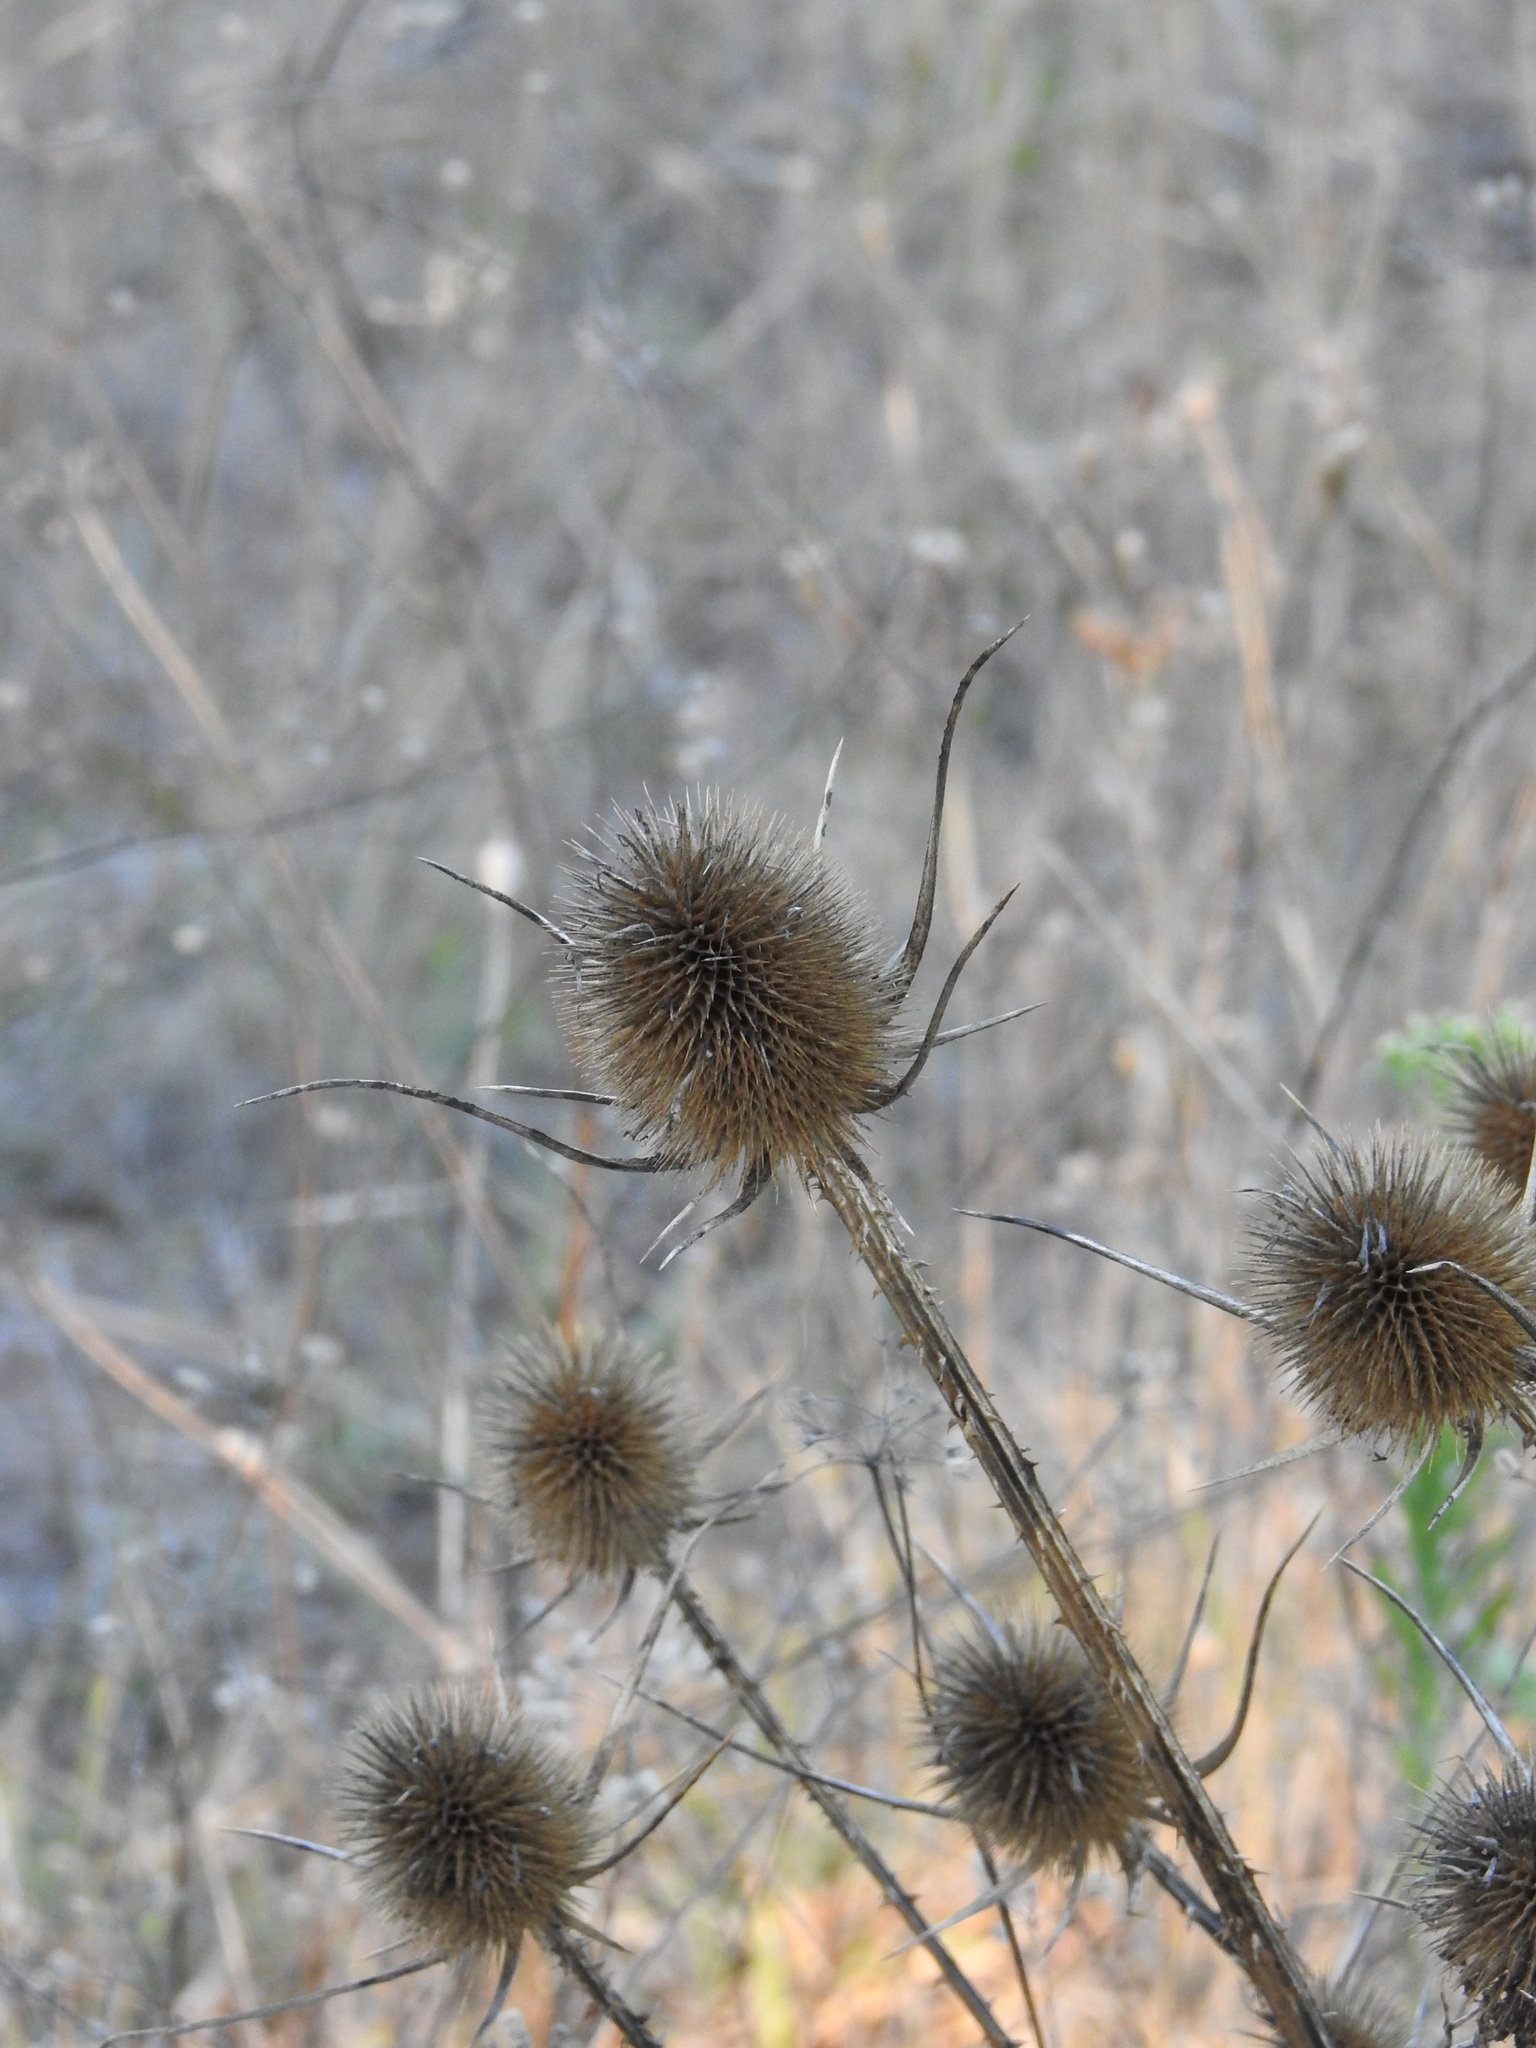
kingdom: Plantae
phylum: Tracheophyta
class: Magnoliopsida
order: Dipsacales
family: Caprifoliaceae
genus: Dipsacus
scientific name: Dipsacus comosus
